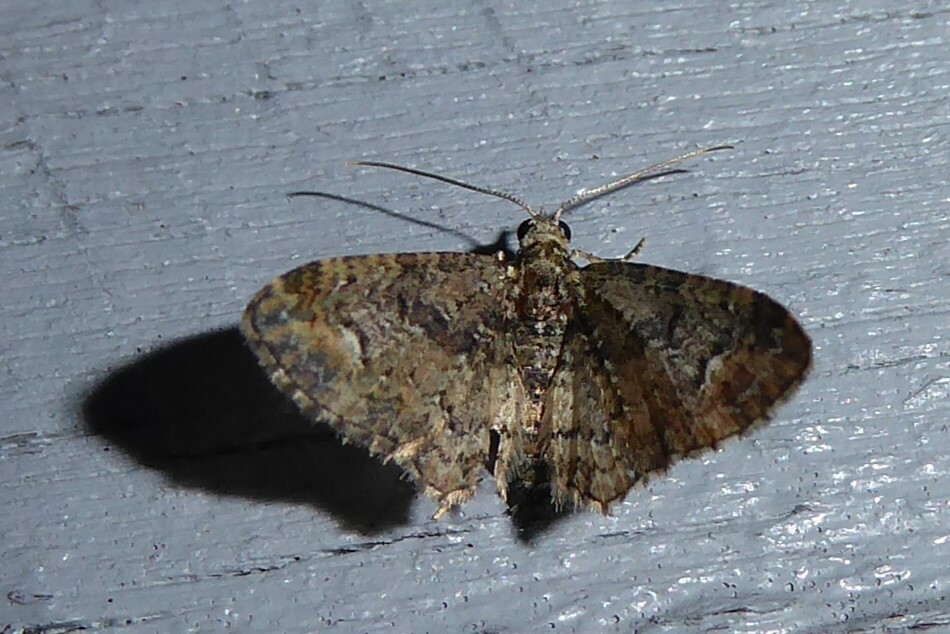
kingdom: Animalia
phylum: Arthropoda
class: Insecta
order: Lepidoptera
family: Geometridae
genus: Pasiphilodes
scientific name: Pasiphilodes testulata
